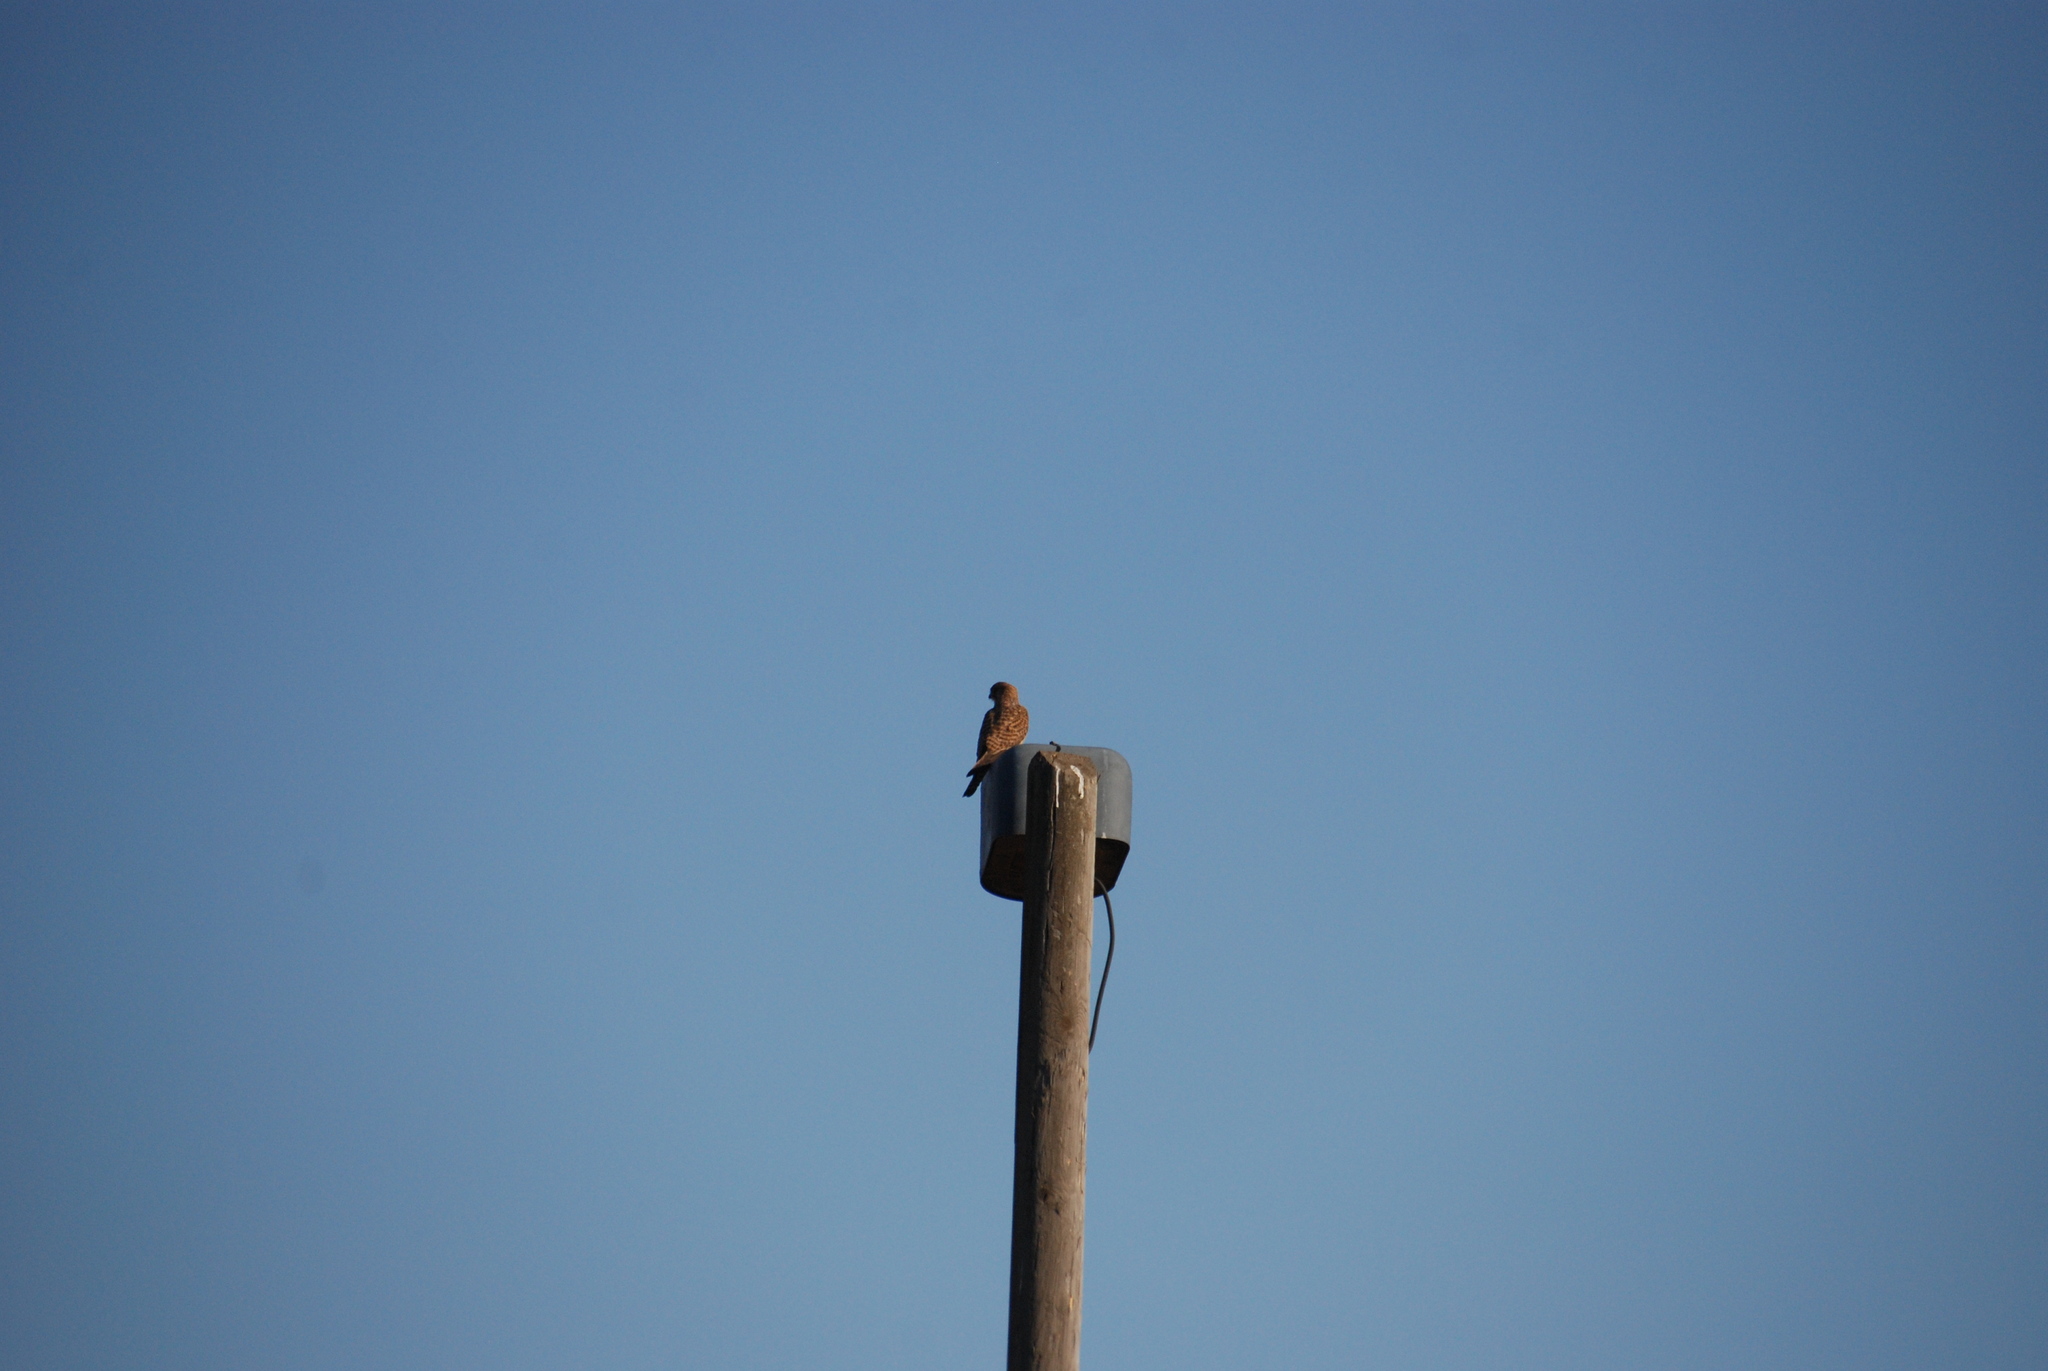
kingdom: Animalia
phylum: Chordata
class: Aves
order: Falconiformes
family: Falconidae
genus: Falco
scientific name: Falco tinnunculus
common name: Common kestrel
